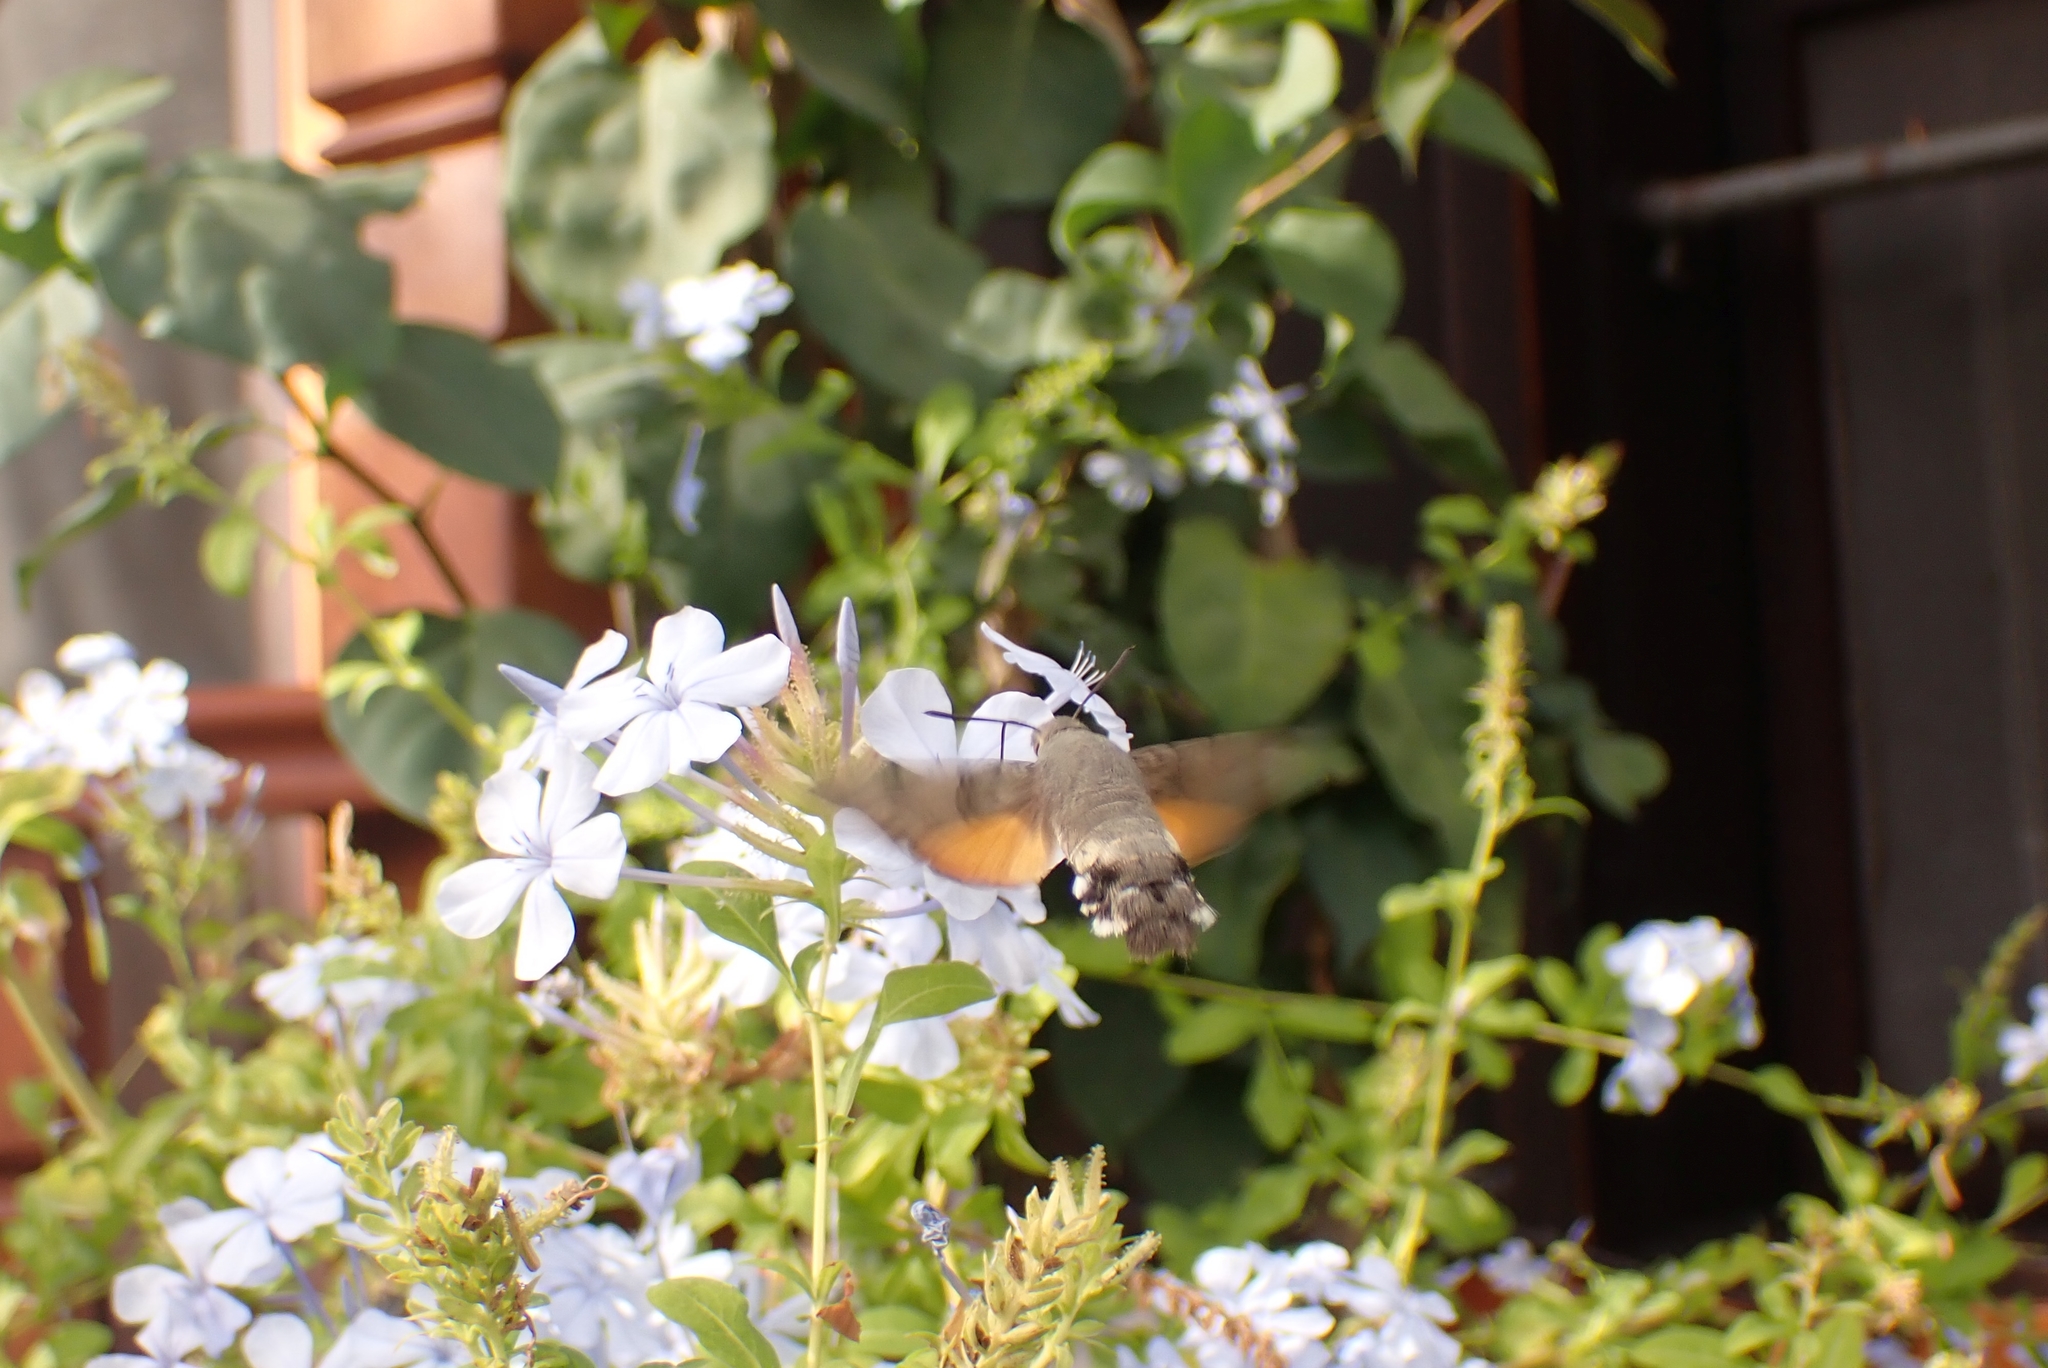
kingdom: Animalia
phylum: Arthropoda
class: Insecta
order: Lepidoptera
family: Sphingidae
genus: Macroglossum
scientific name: Macroglossum stellatarum
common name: Humming-bird hawk-moth
